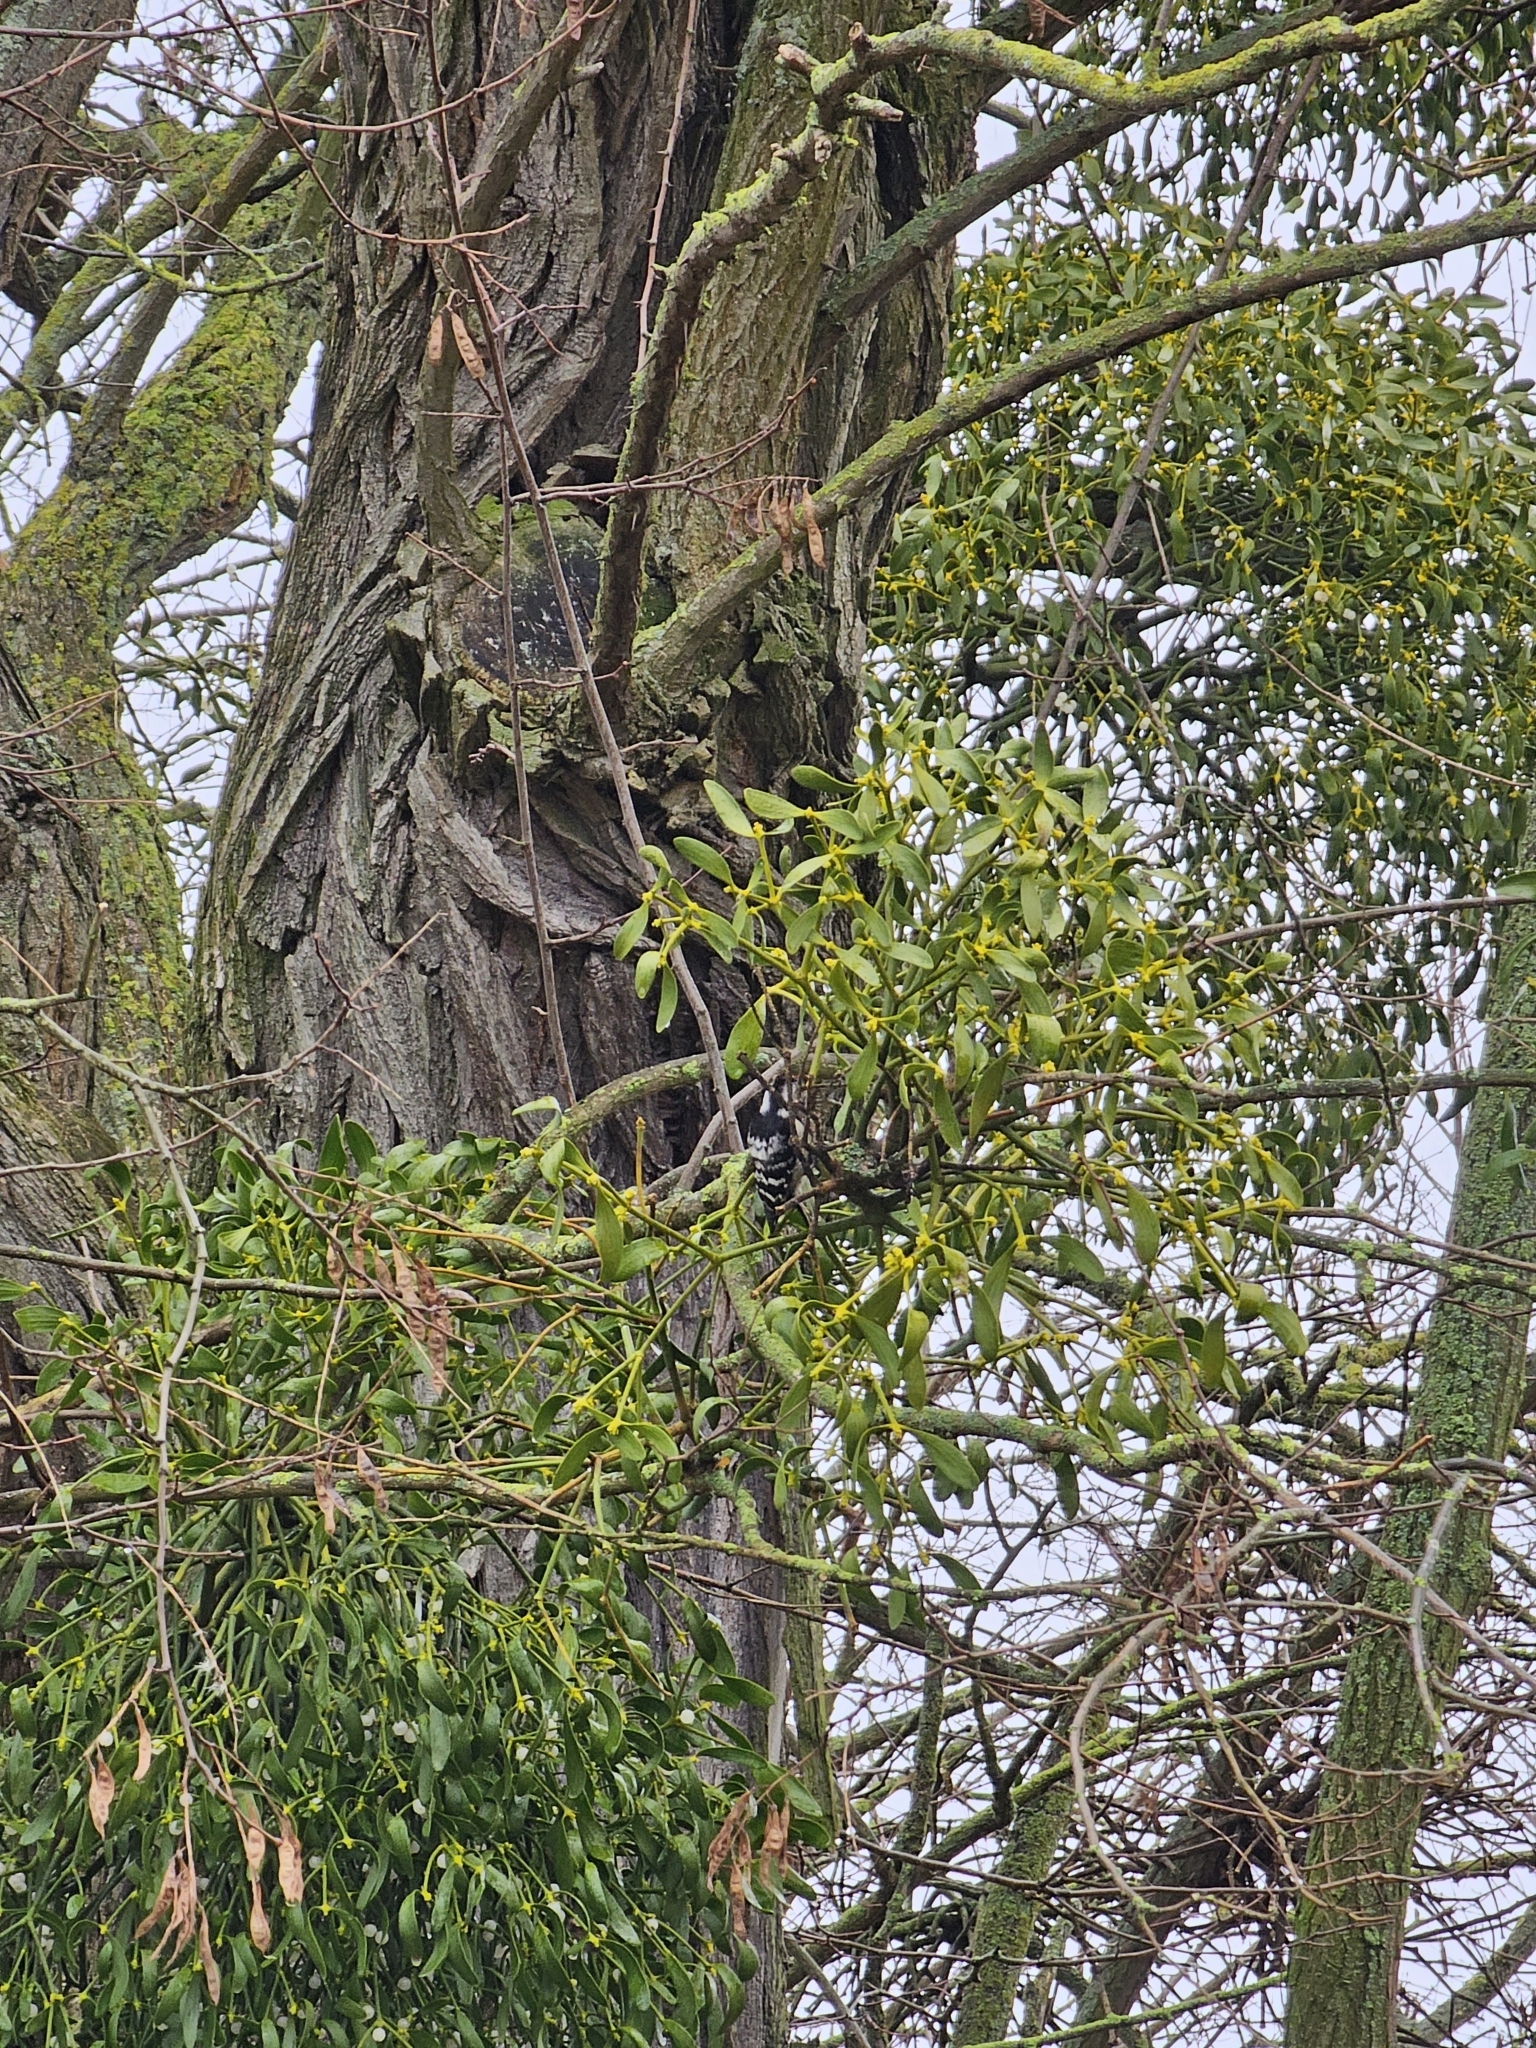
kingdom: Animalia
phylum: Chordata
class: Aves
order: Piciformes
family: Picidae
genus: Dryobates
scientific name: Dryobates minor
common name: Lesser spotted woodpecker
